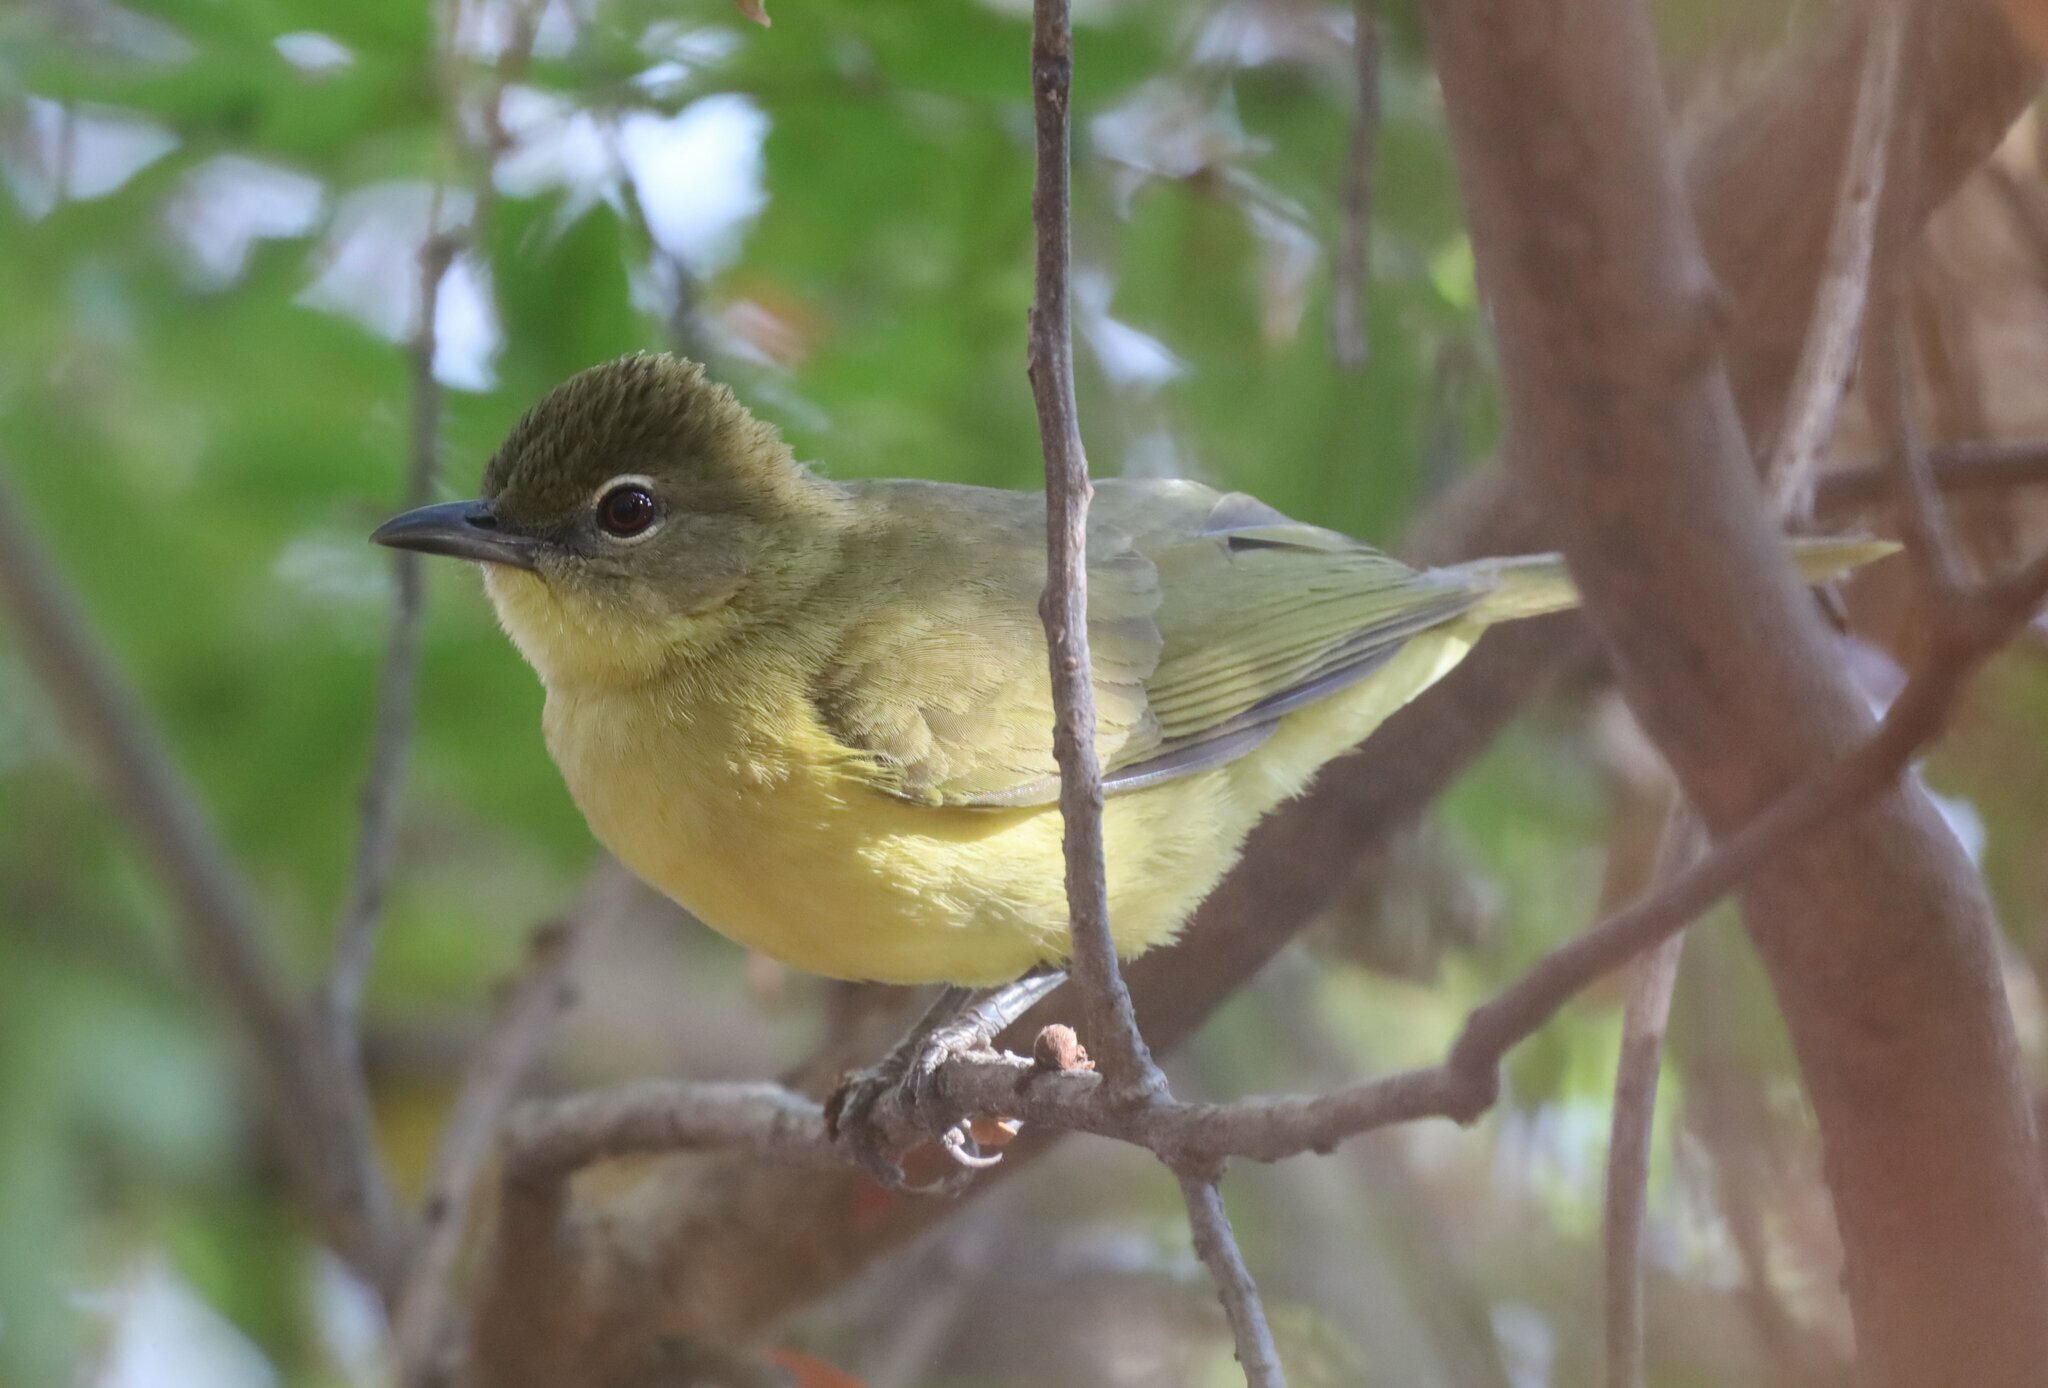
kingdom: Animalia
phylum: Chordata
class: Aves
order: Passeriformes
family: Pycnonotidae
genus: Chlorocichla
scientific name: Chlorocichla flaviventris
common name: Yellow-bellied greenbul
